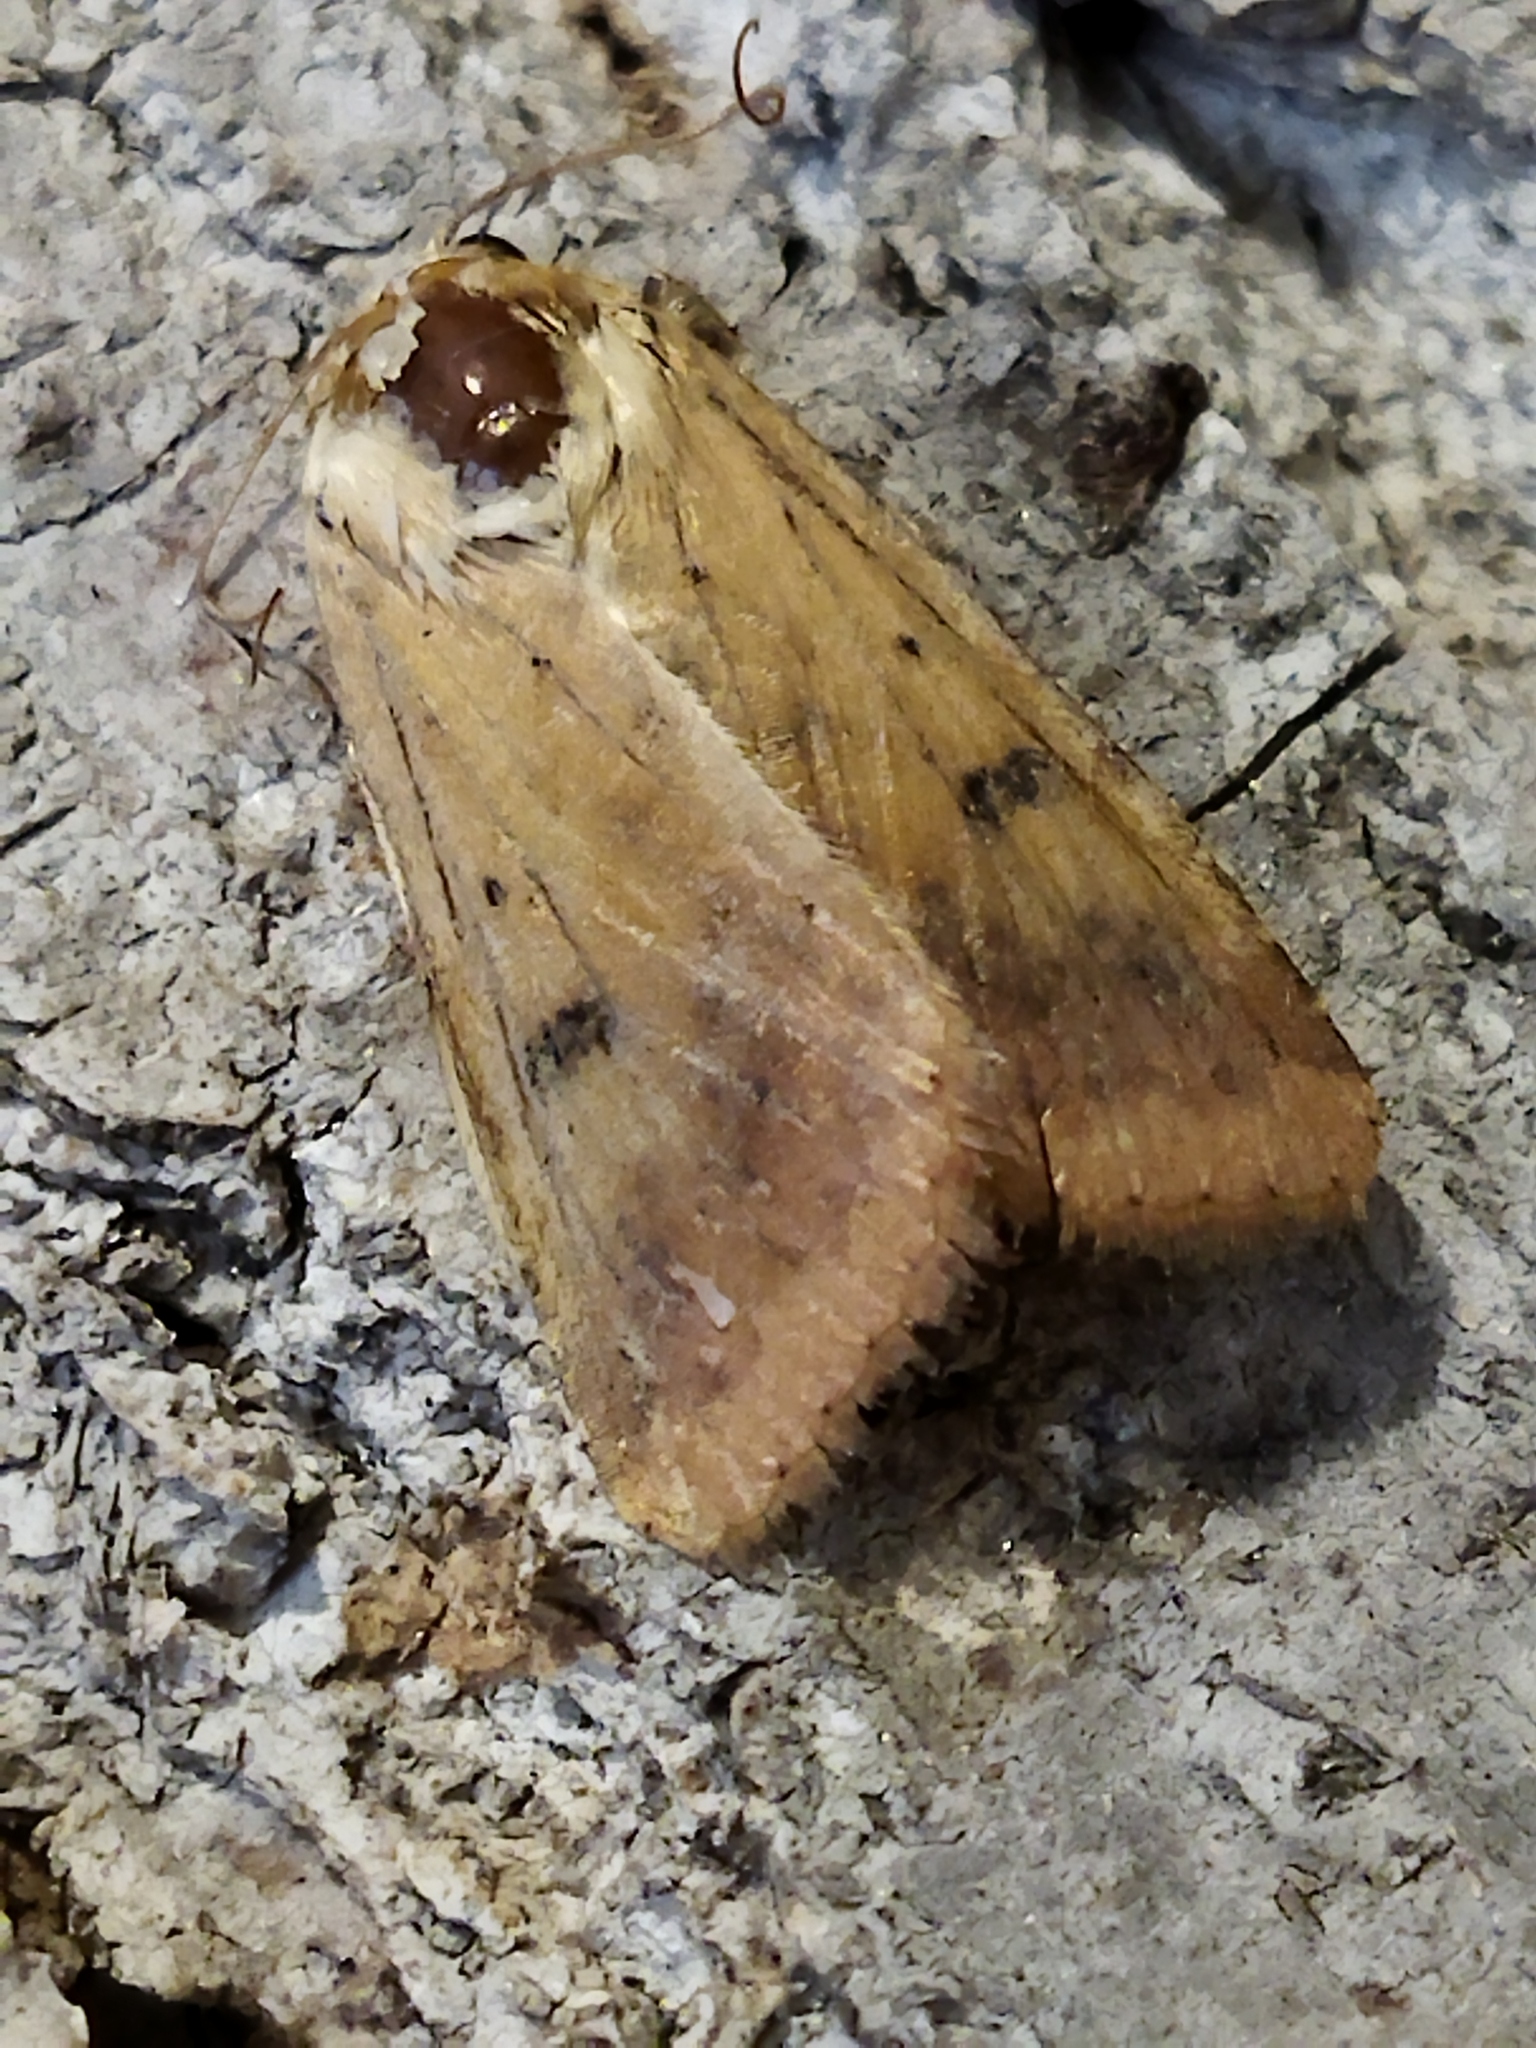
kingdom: Animalia
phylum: Arthropoda
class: Insecta
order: Lepidoptera
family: Noctuidae
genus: Helicoverpa
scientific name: Helicoverpa armigera
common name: Cotton bollworm
